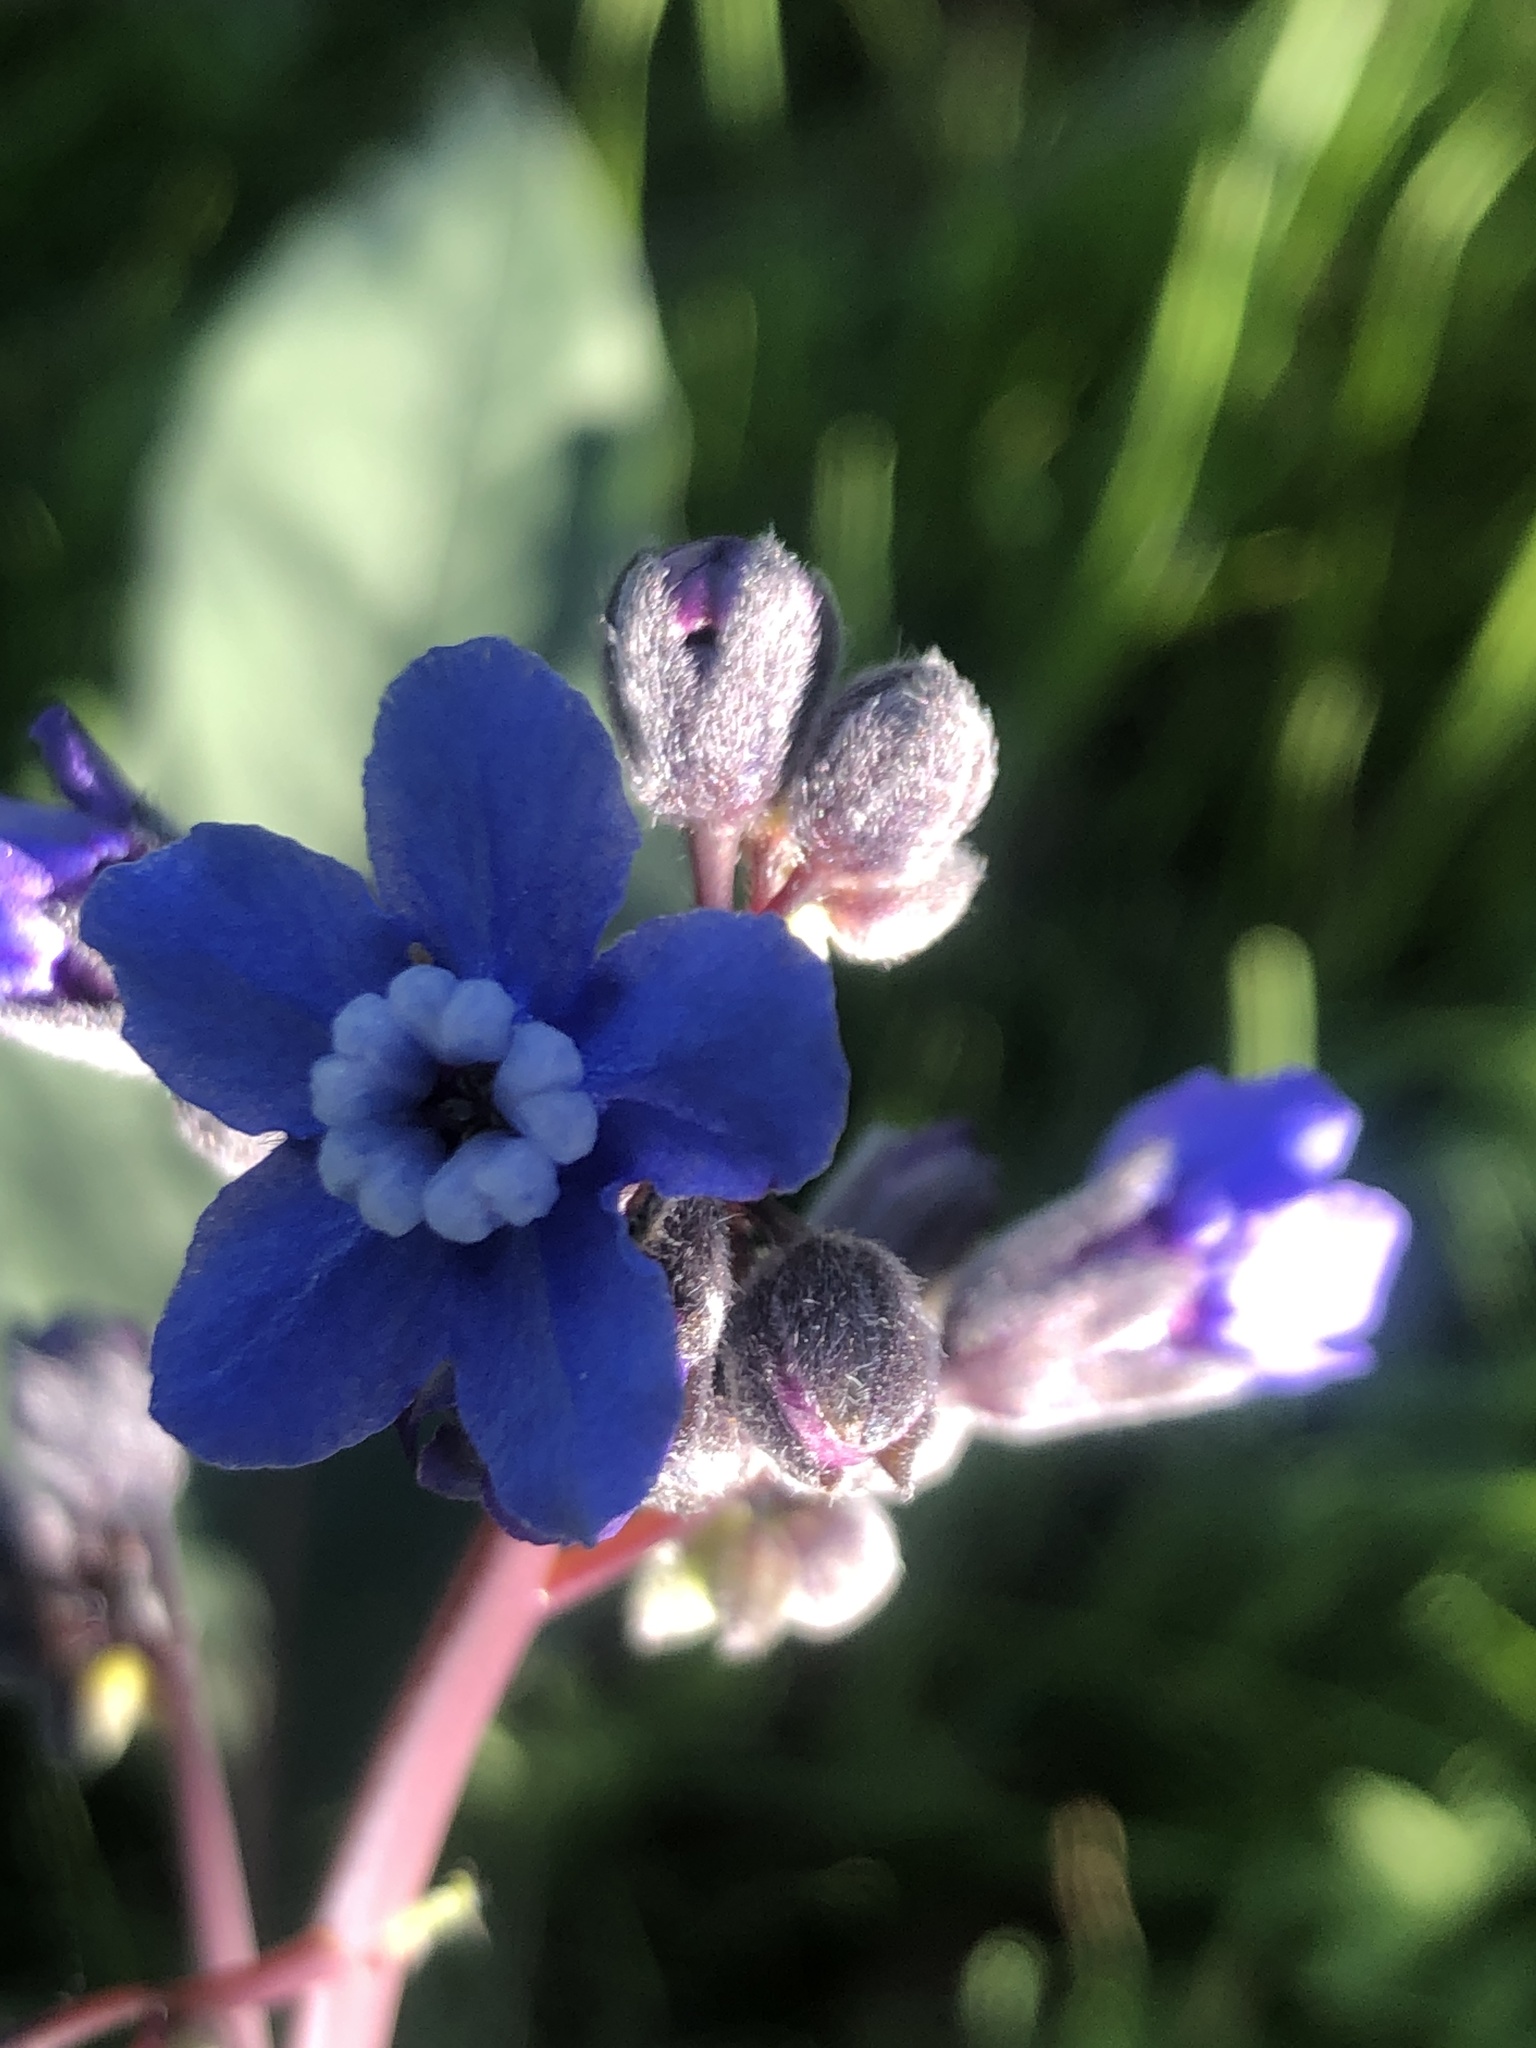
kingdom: Plantae
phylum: Tracheophyta
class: Magnoliopsida
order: Boraginales
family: Boraginaceae
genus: Adelinia
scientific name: Adelinia grande
